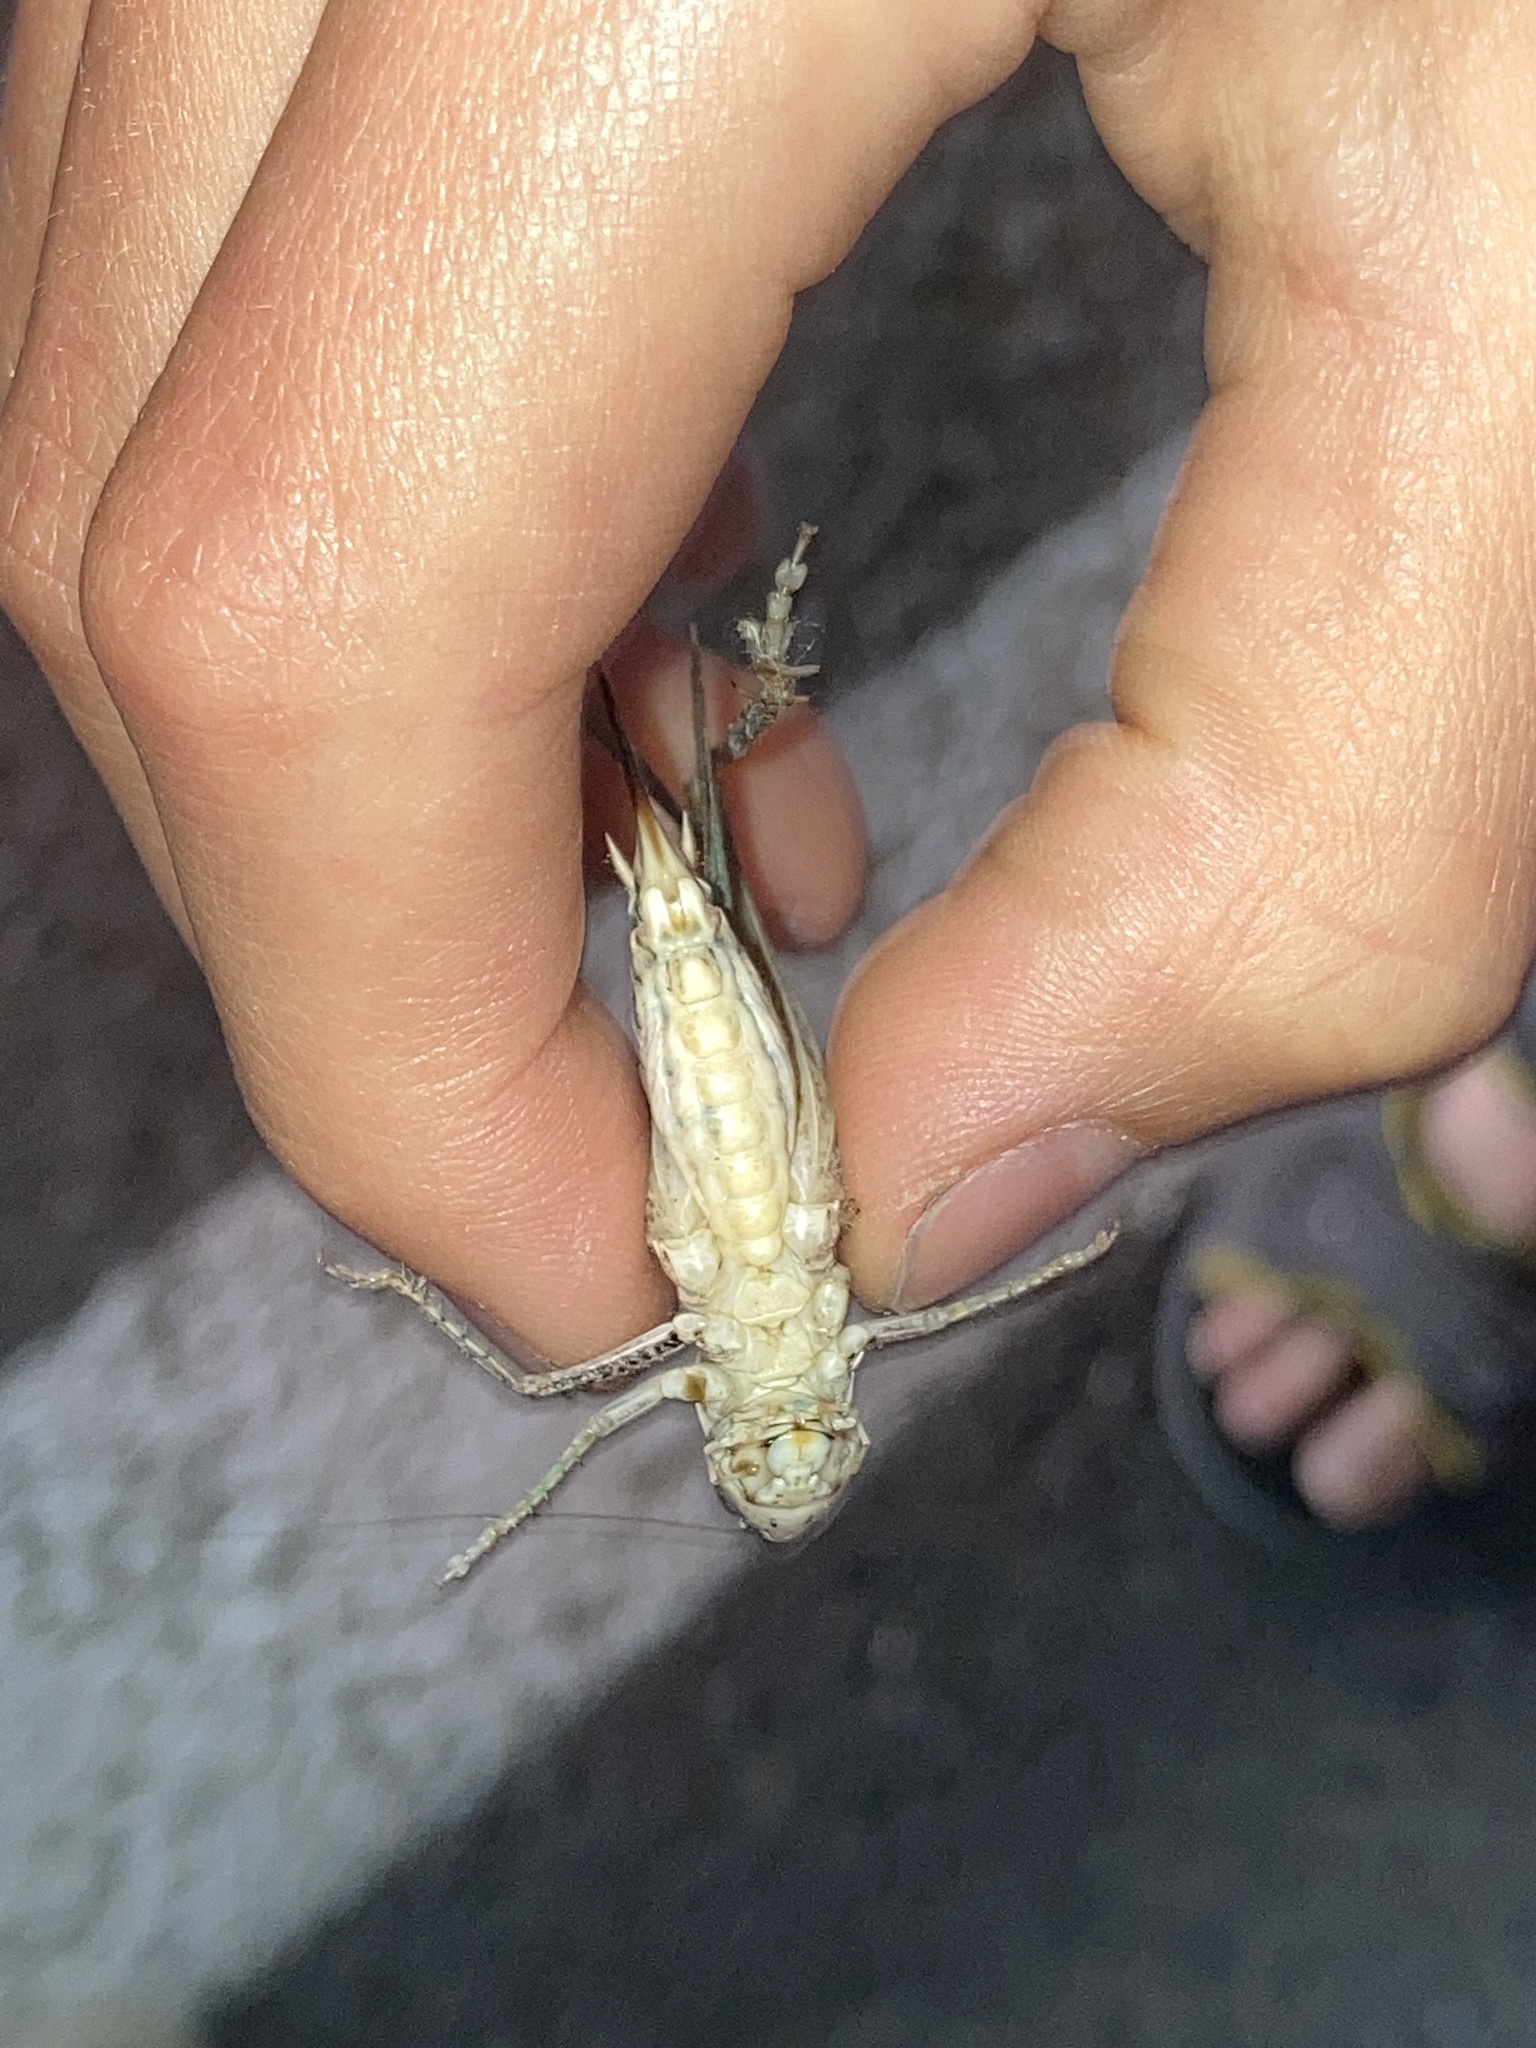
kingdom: Animalia
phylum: Arthropoda
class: Insecta
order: Orthoptera
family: Tettigoniidae
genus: Platycleis
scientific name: Platycleis affinis
